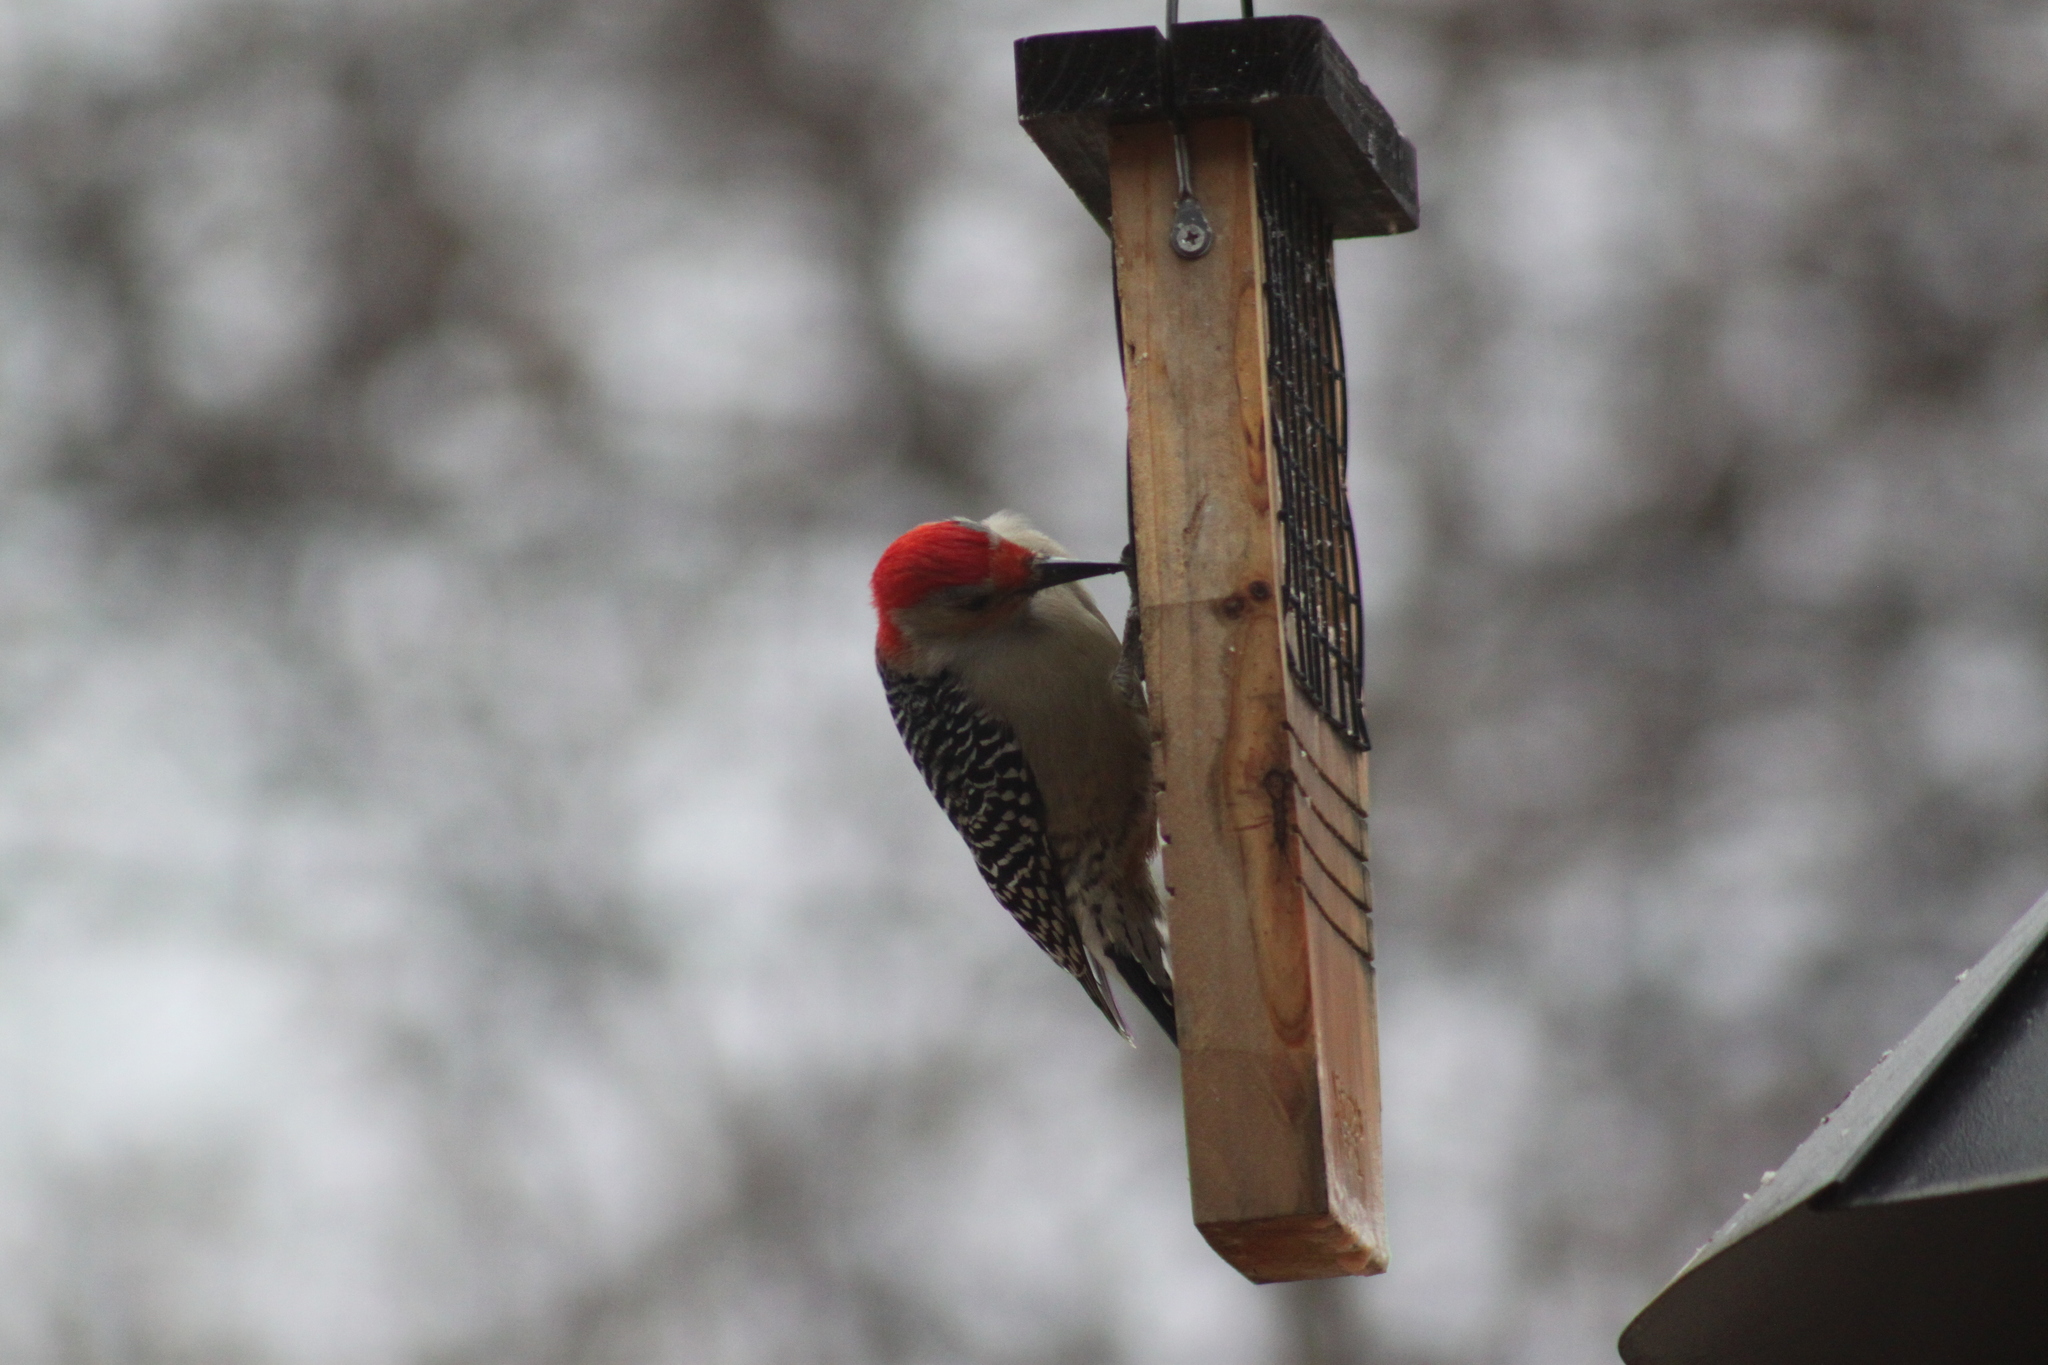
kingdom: Animalia
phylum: Chordata
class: Aves
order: Piciformes
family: Picidae
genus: Melanerpes
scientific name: Melanerpes carolinus
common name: Red-bellied woodpecker
